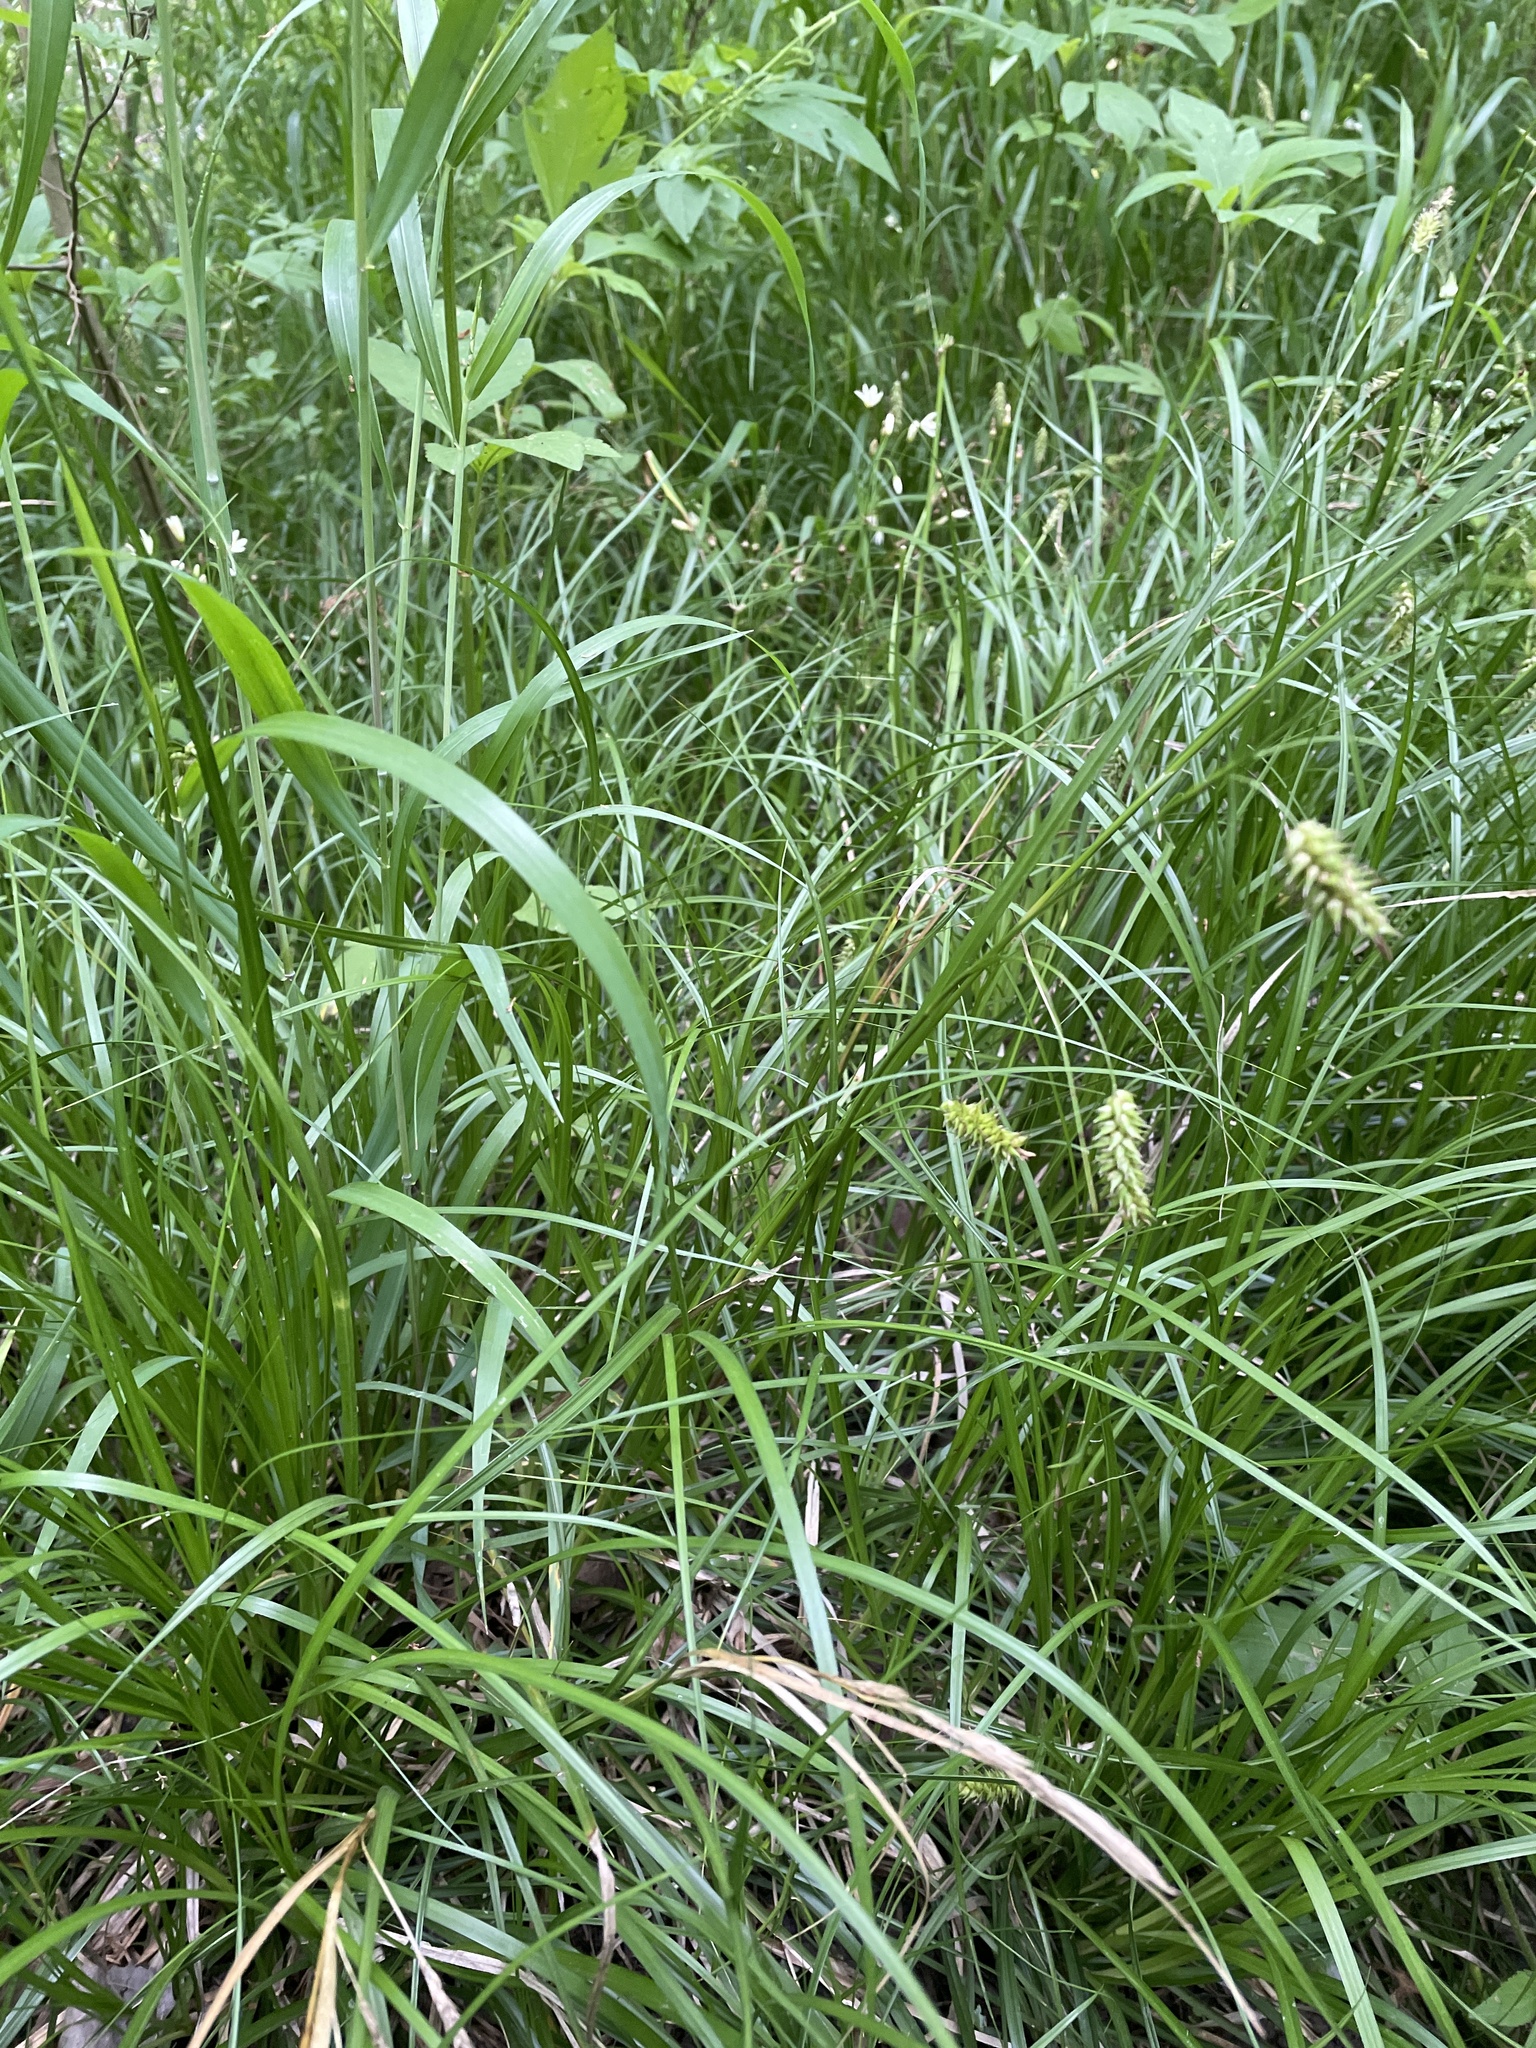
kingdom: Plantae
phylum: Tracheophyta
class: Liliopsida
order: Poales
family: Cyperaceae
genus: Carex
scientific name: Carex cherokeensis
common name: Cherokee sedge
